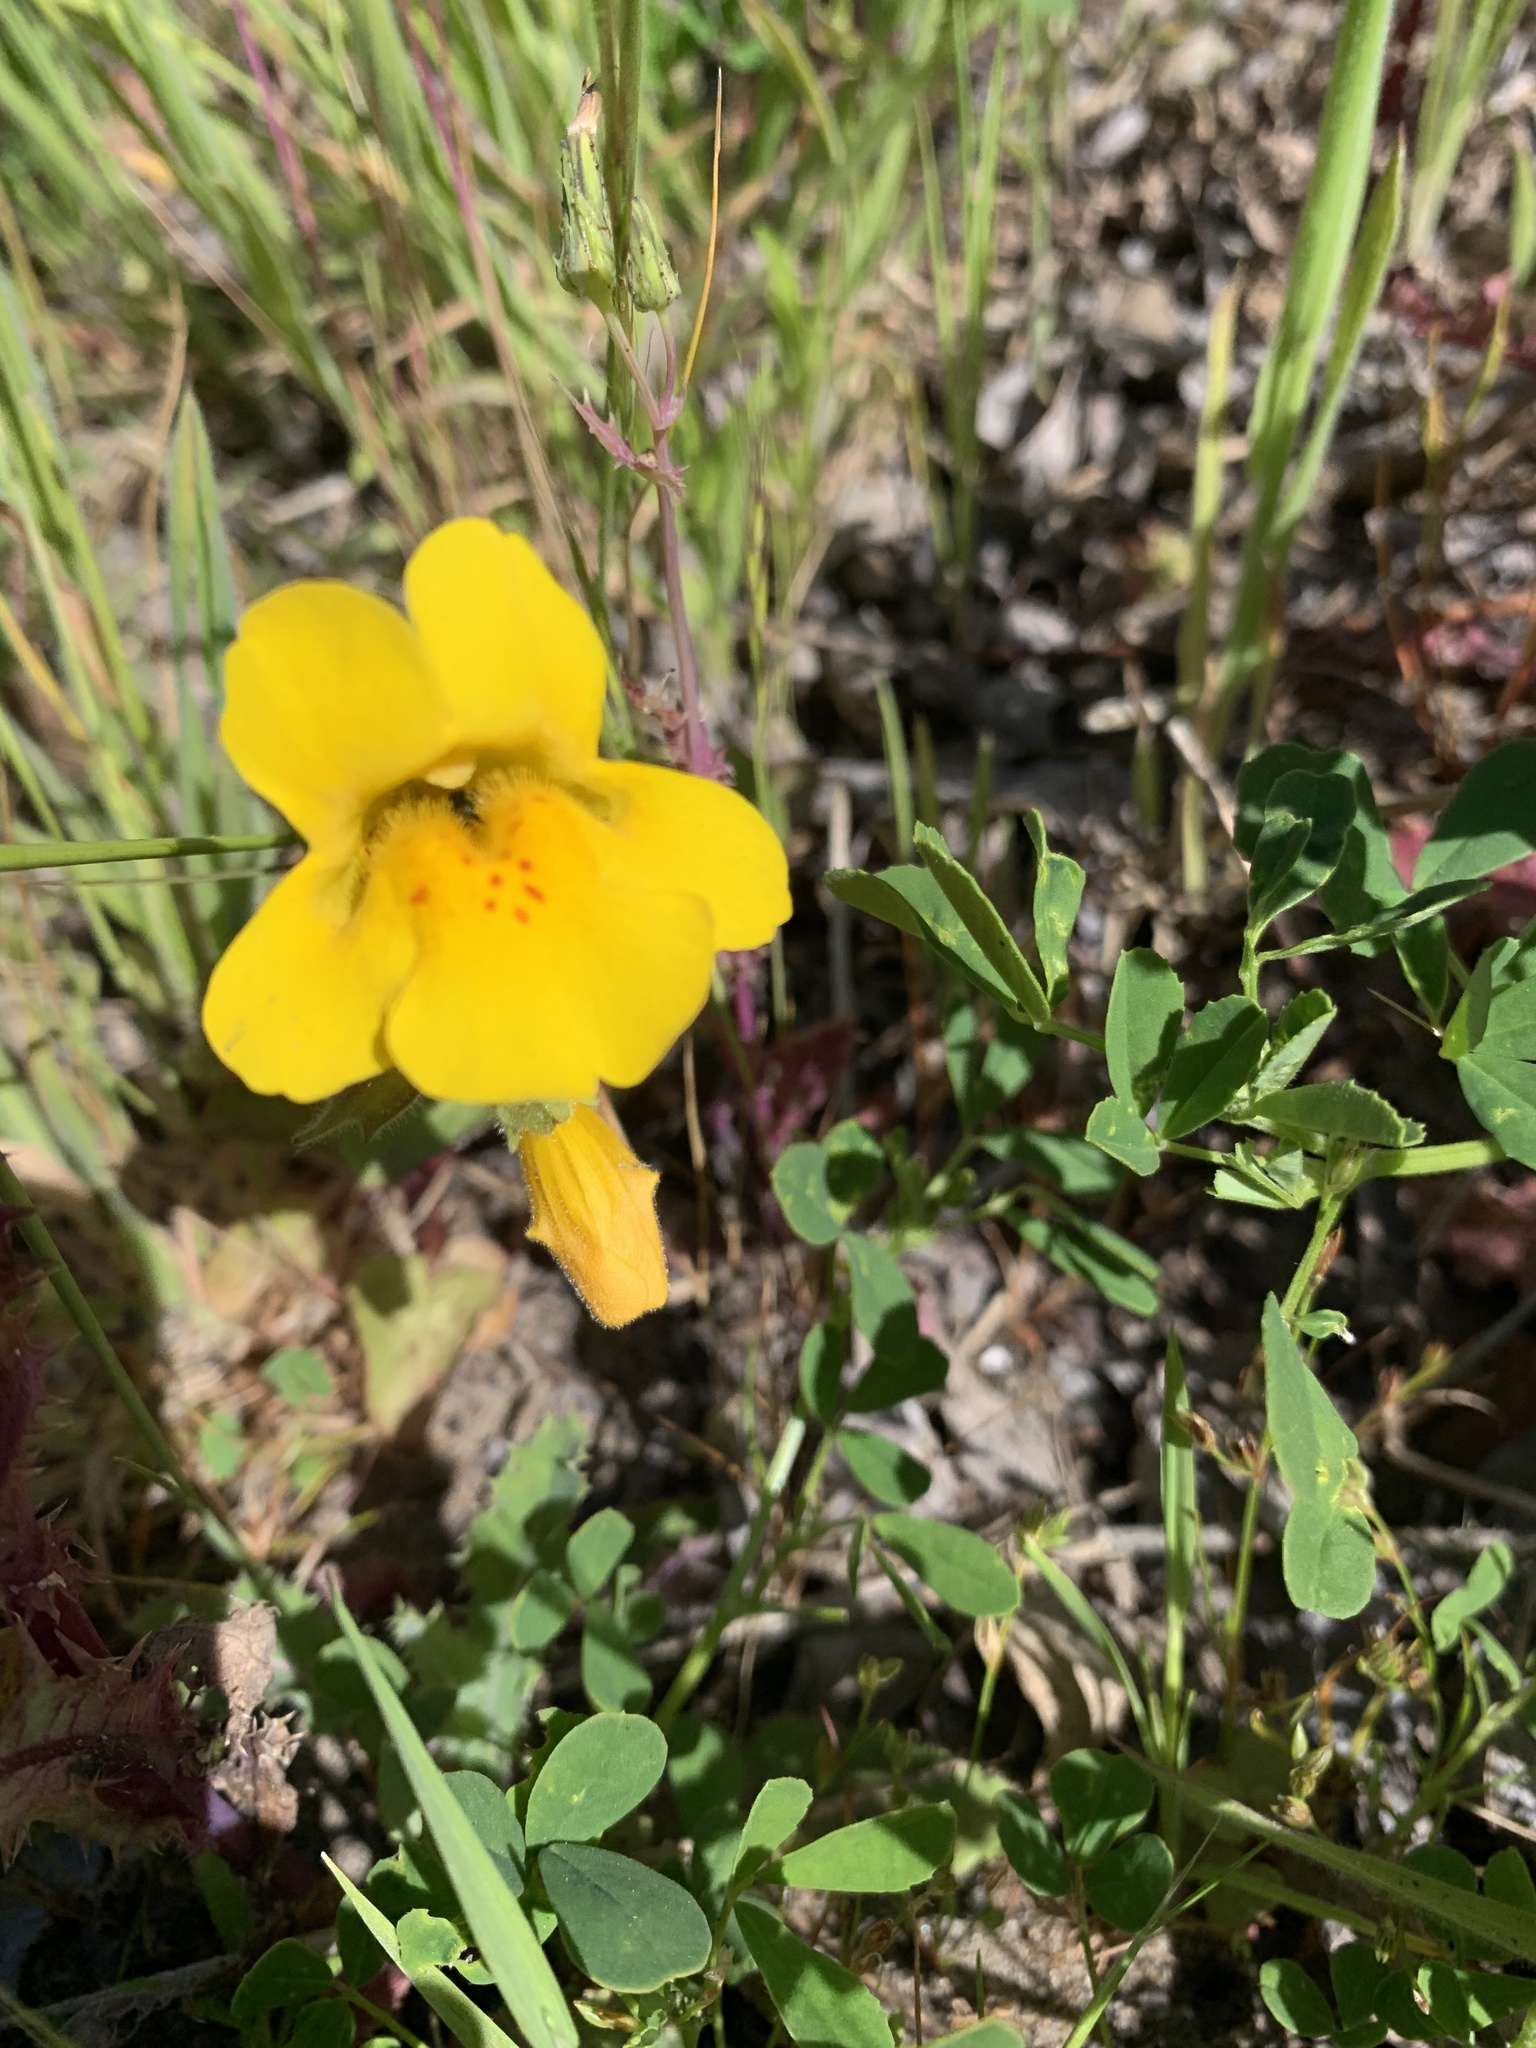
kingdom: Plantae
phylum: Tracheophyta
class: Magnoliopsida
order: Lamiales
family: Phrymaceae
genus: Erythranthe
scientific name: Erythranthe grandis
